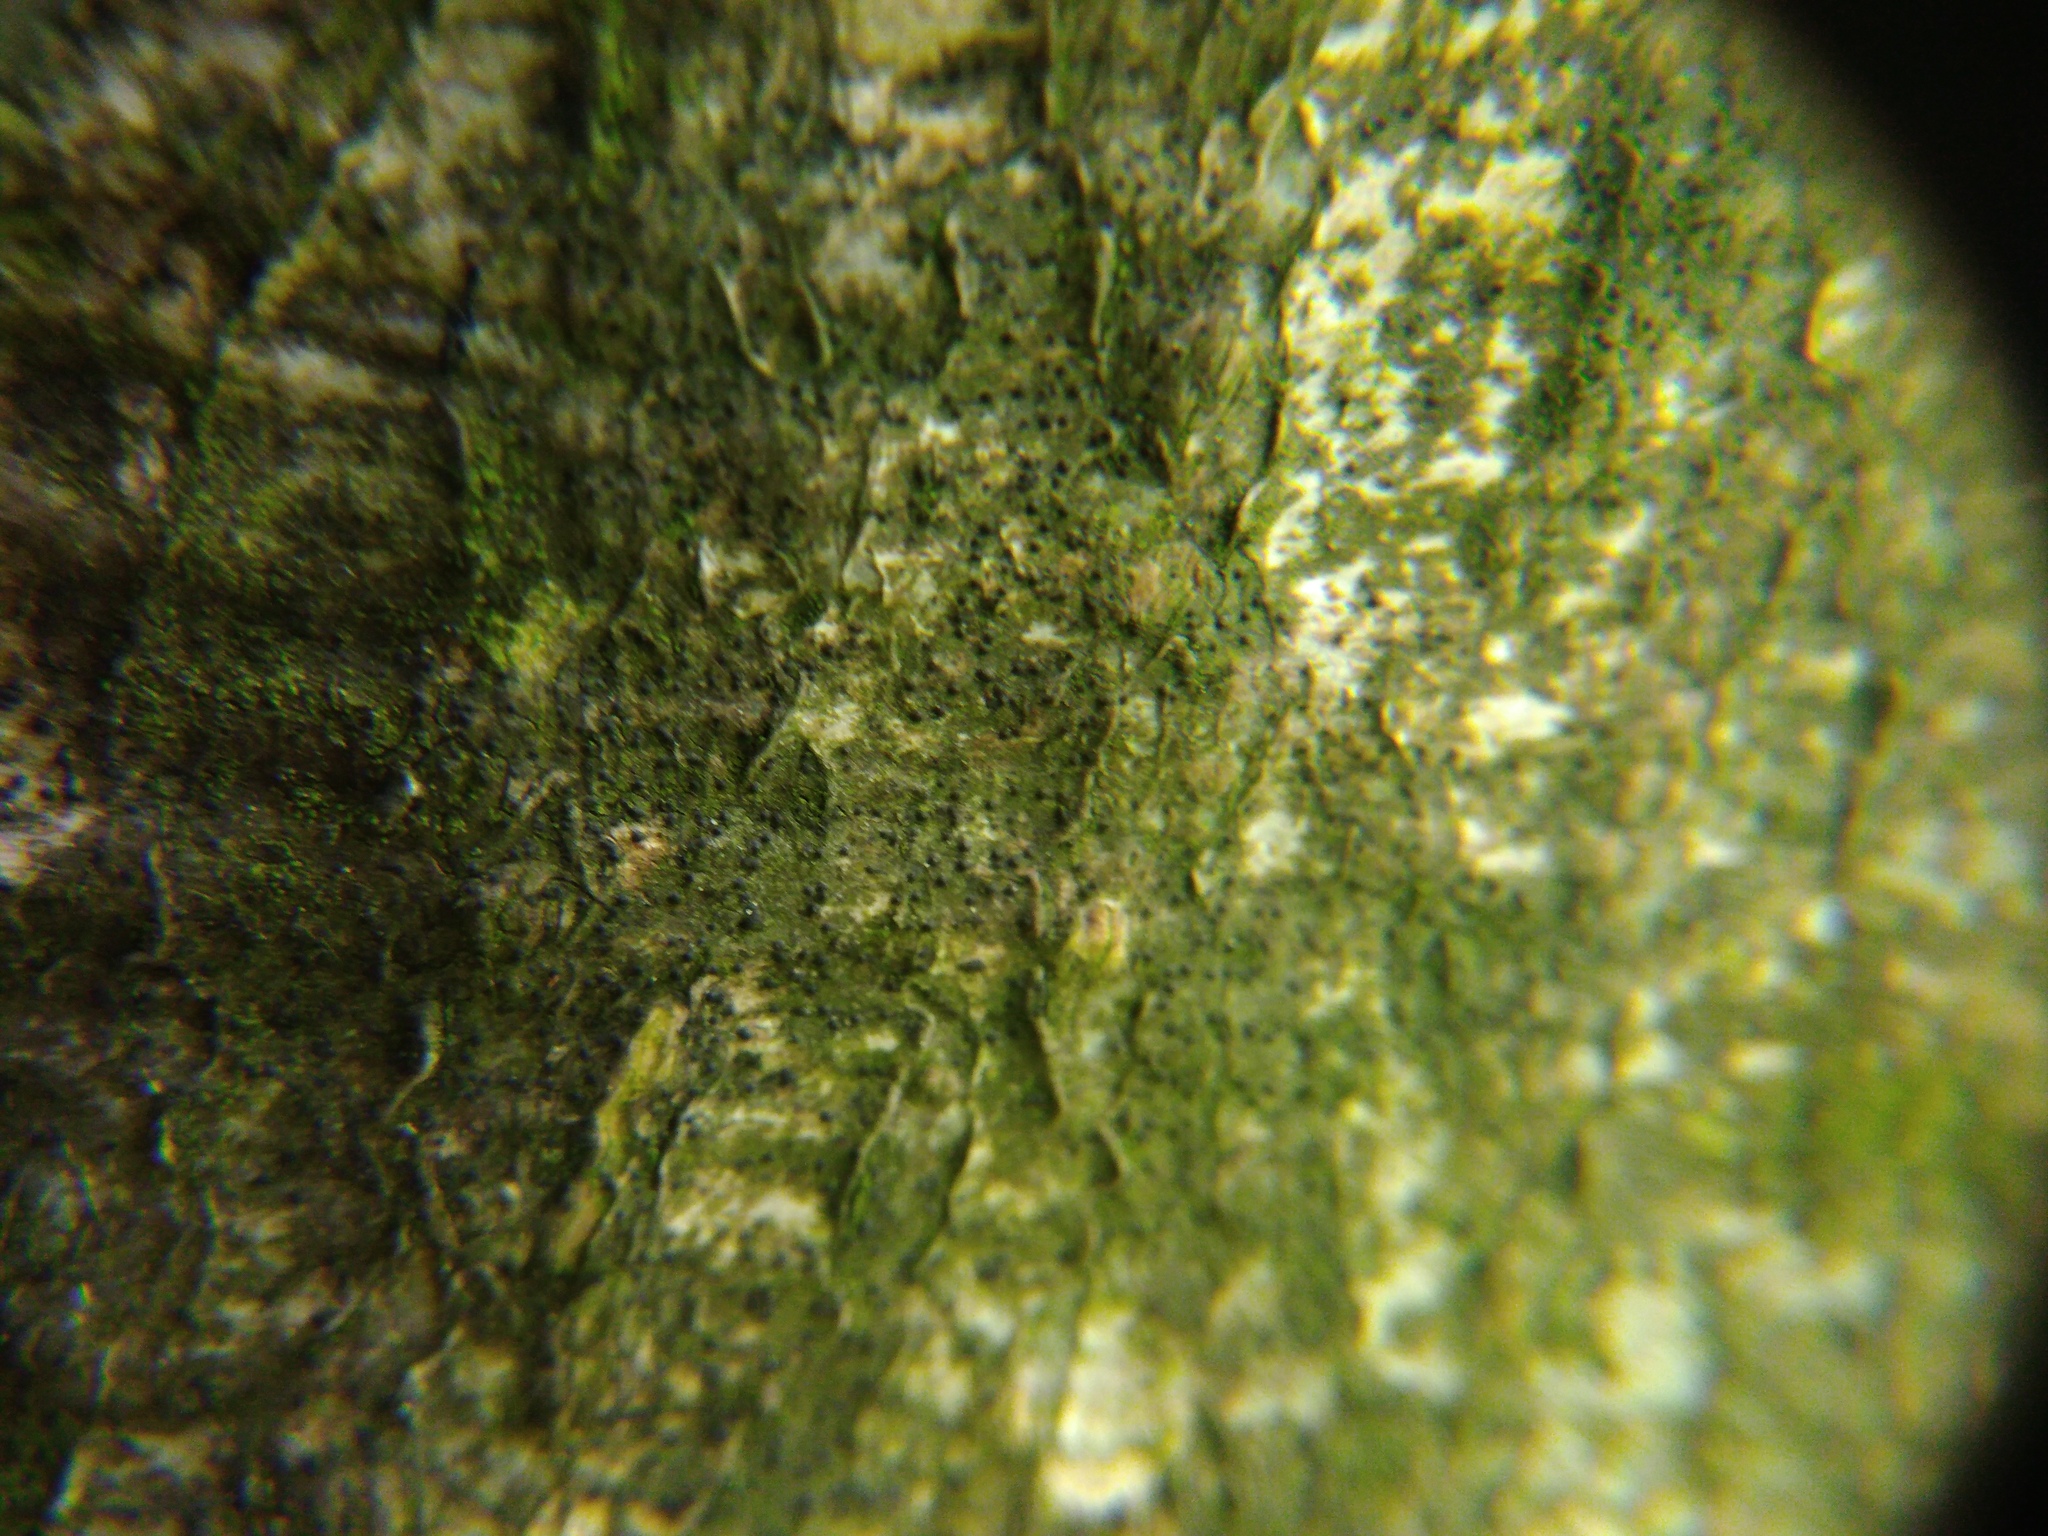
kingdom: Fungi
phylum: Ascomycota
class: Lecanoromycetes
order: Ostropales
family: Porinaceae
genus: Pseudosagedia
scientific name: Pseudosagedia aenea
